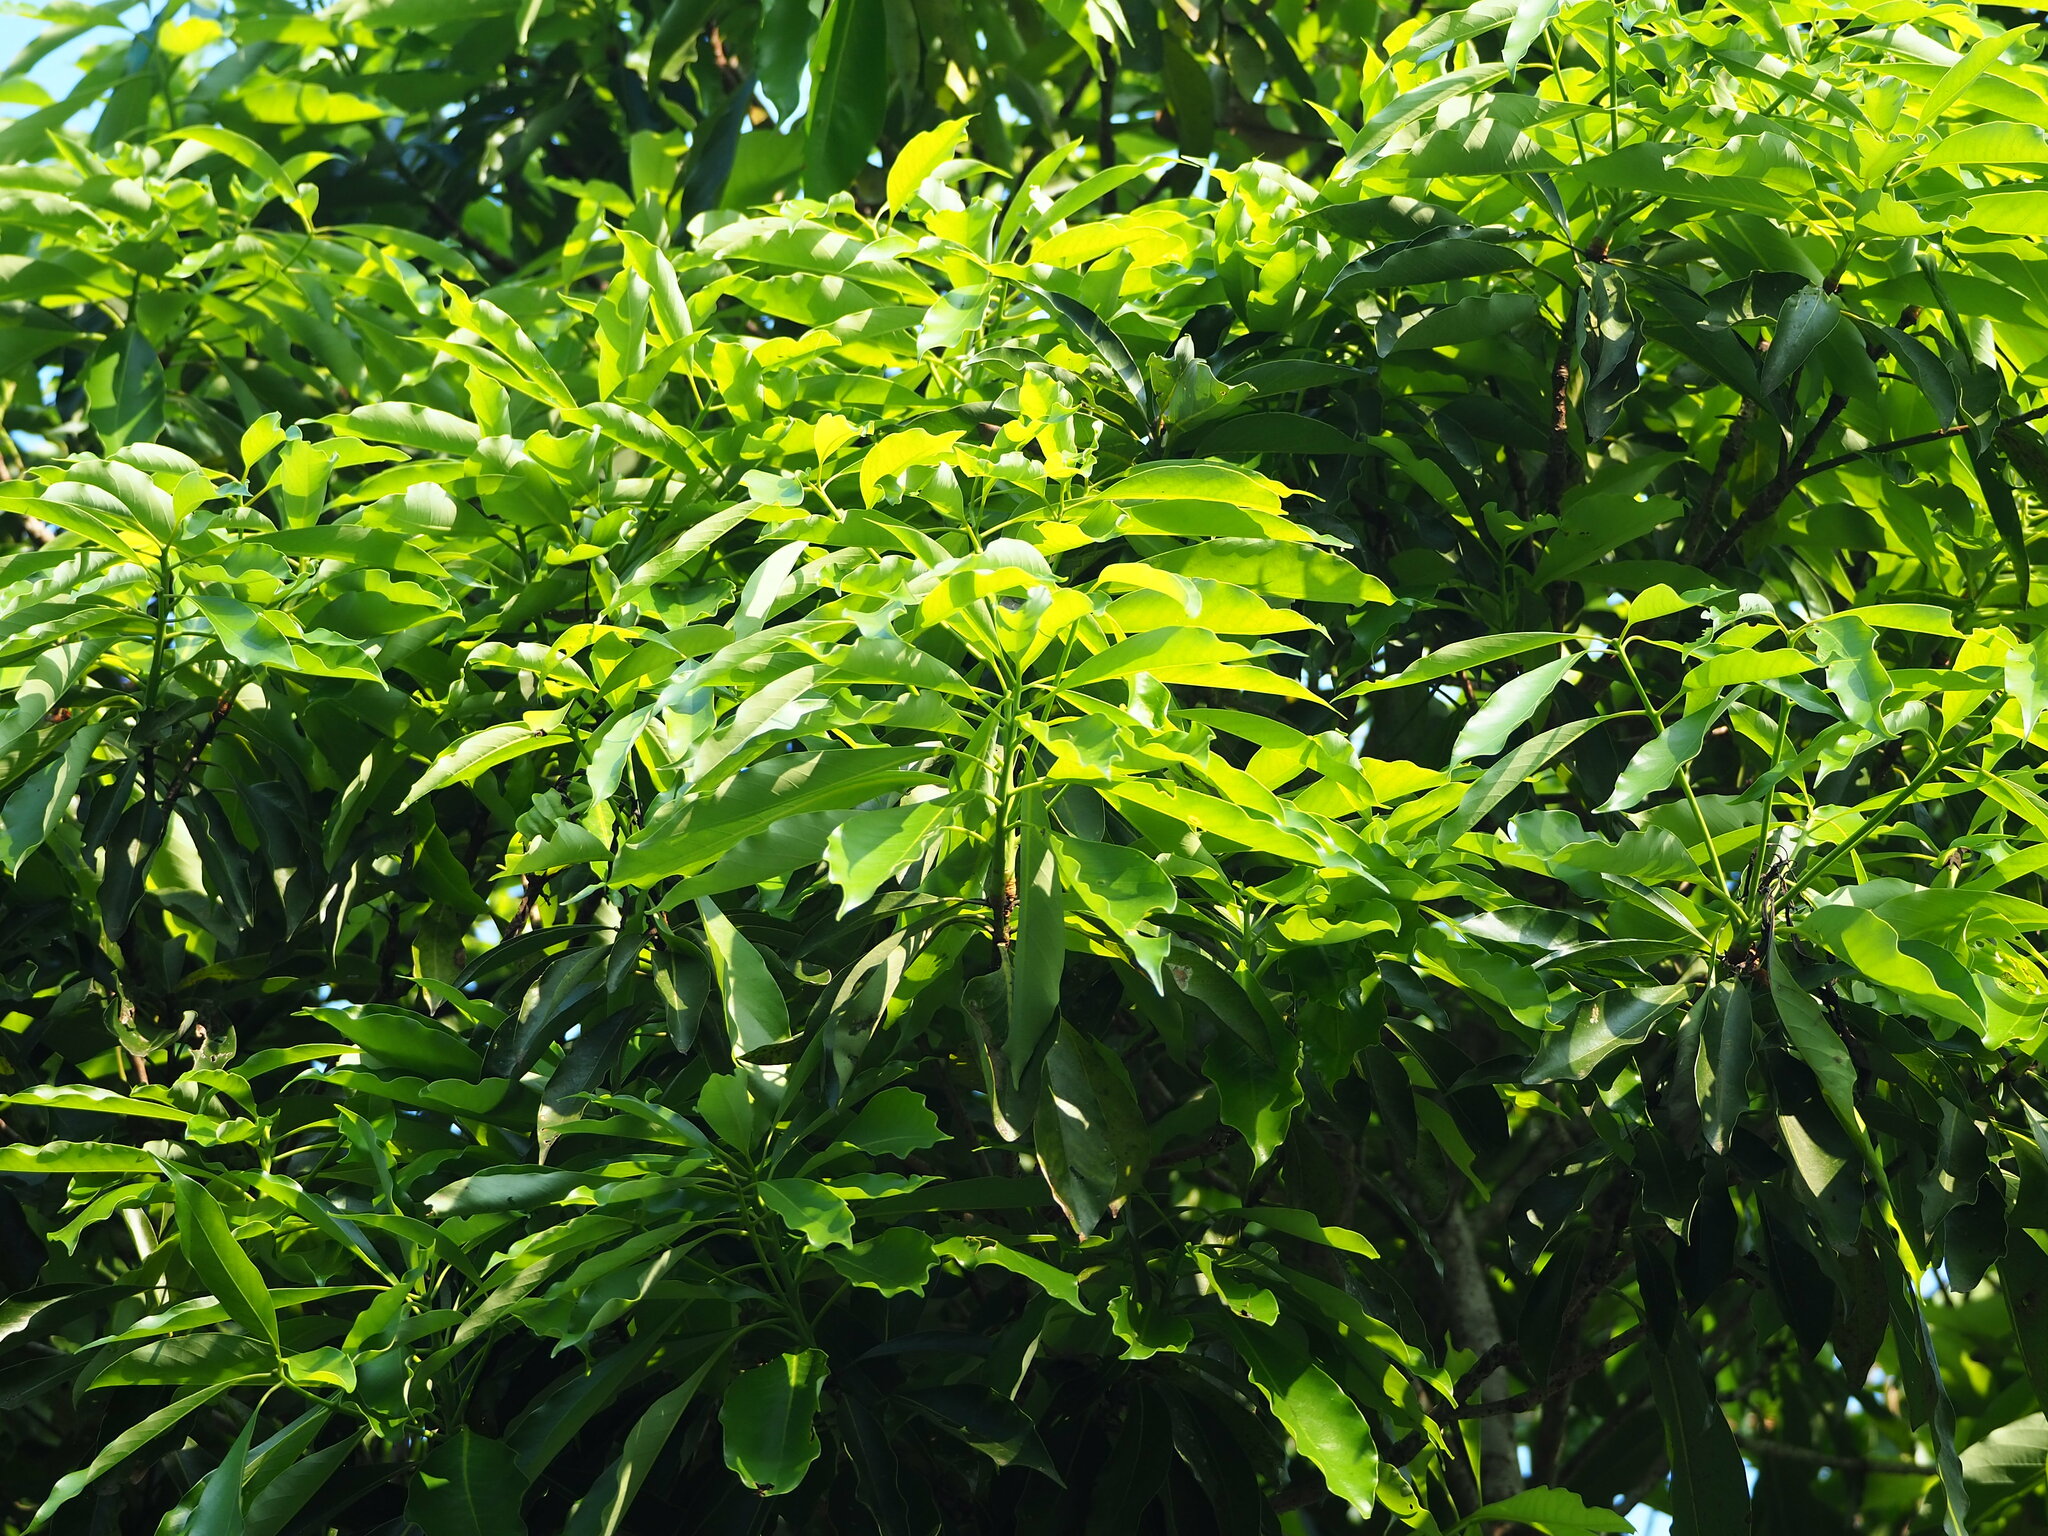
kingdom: Plantae
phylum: Tracheophyta
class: Magnoliopsida
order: Laurales
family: Lauraceae
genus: Machilus
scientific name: Machilus japonica
